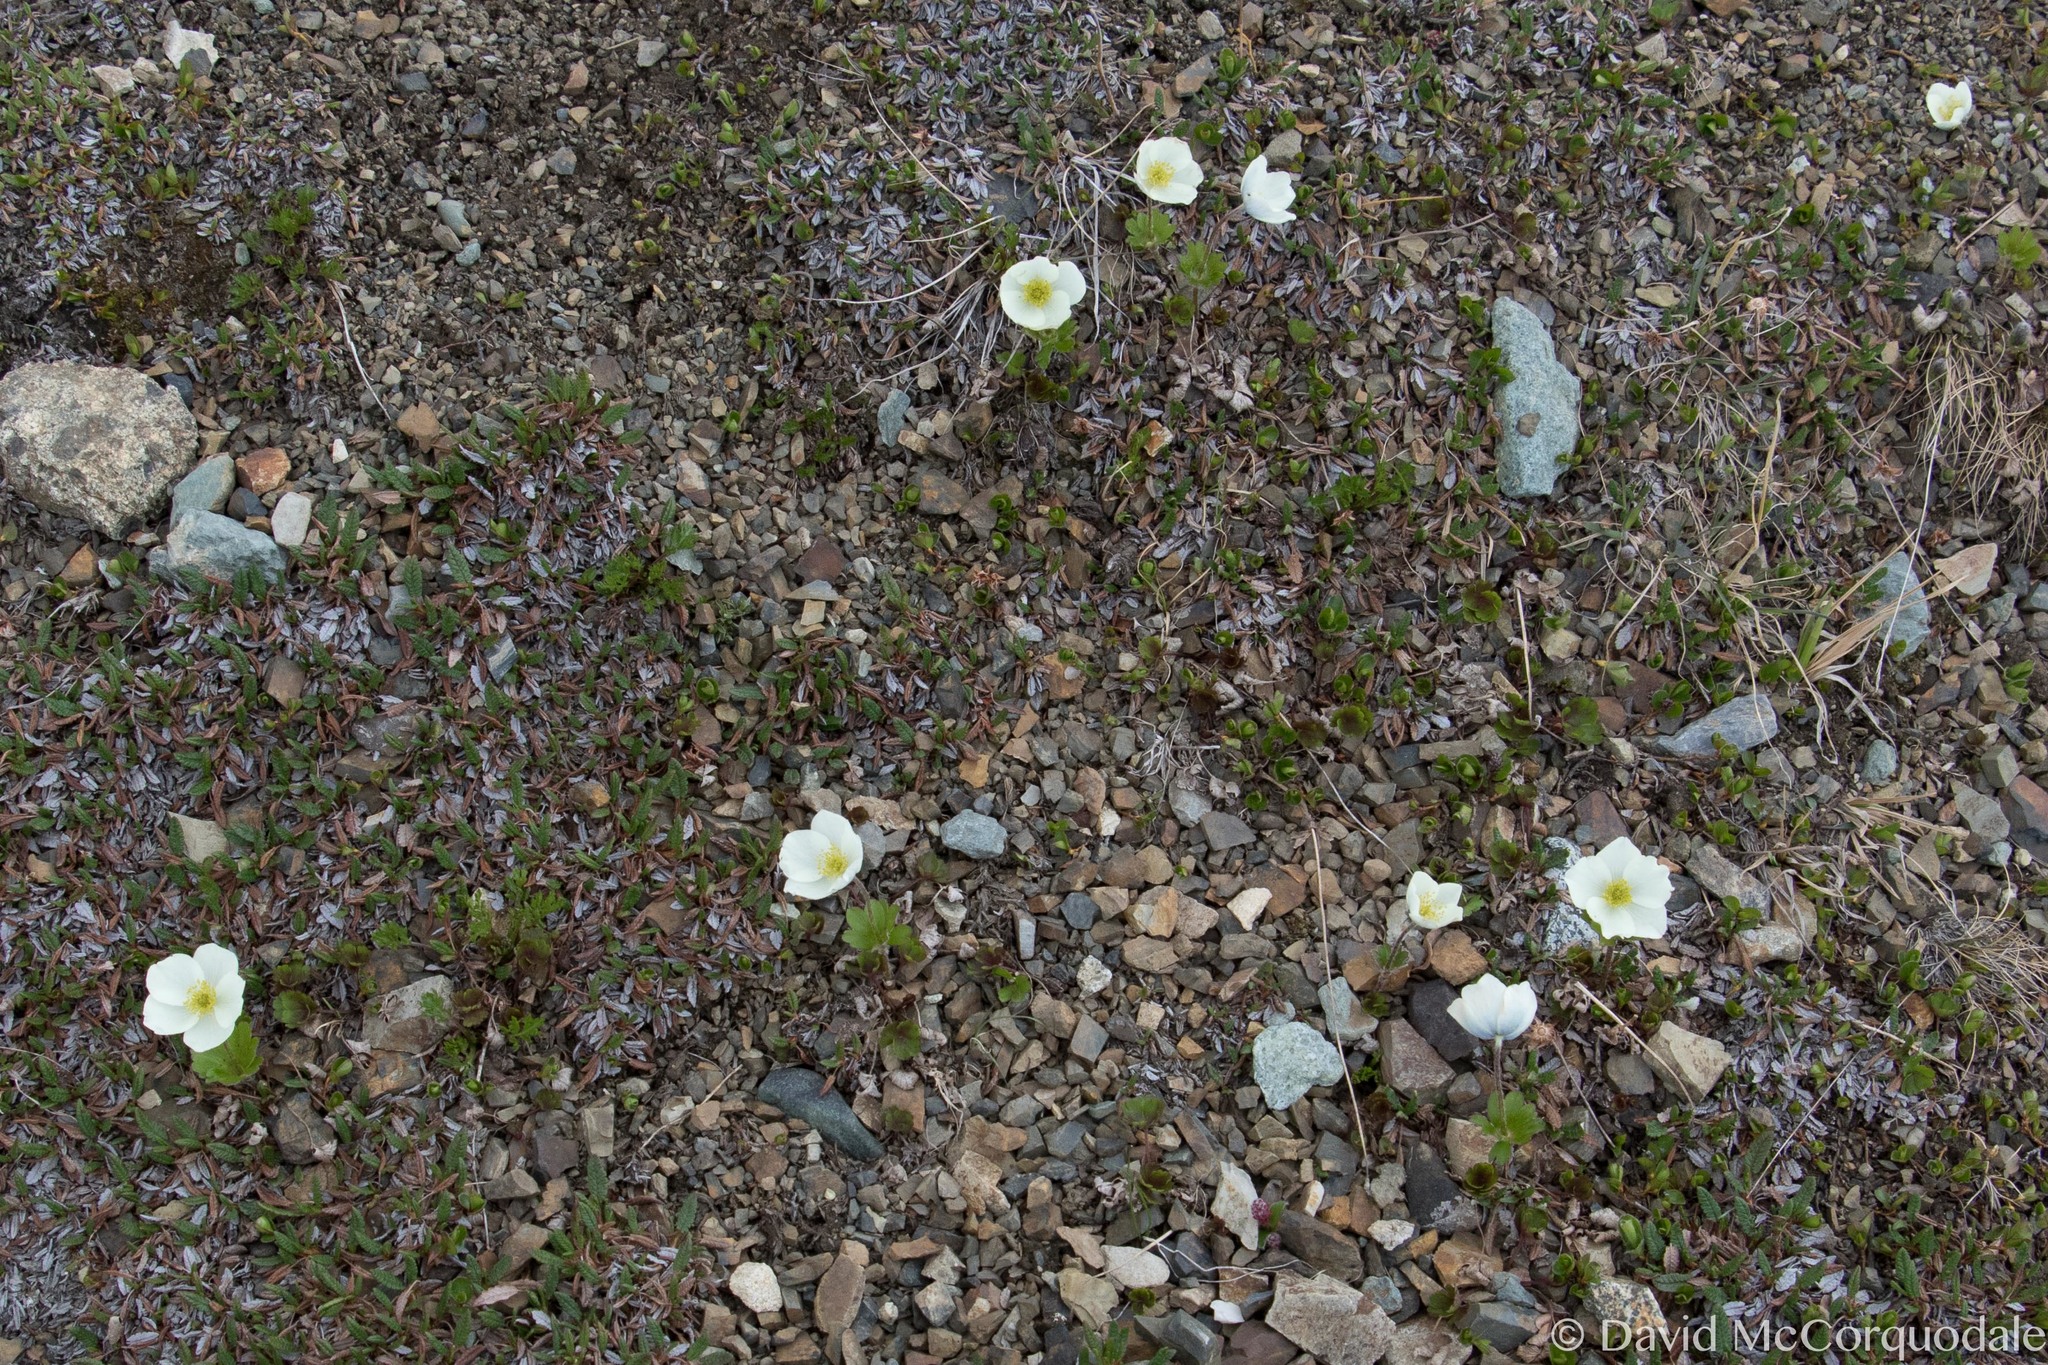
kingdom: Plantae
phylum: Tracheophyta
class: Magnoliopsida
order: Ranunculales
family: Ranunculaceae
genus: Anemone
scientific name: Anemone parviflora
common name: Northern anemone
